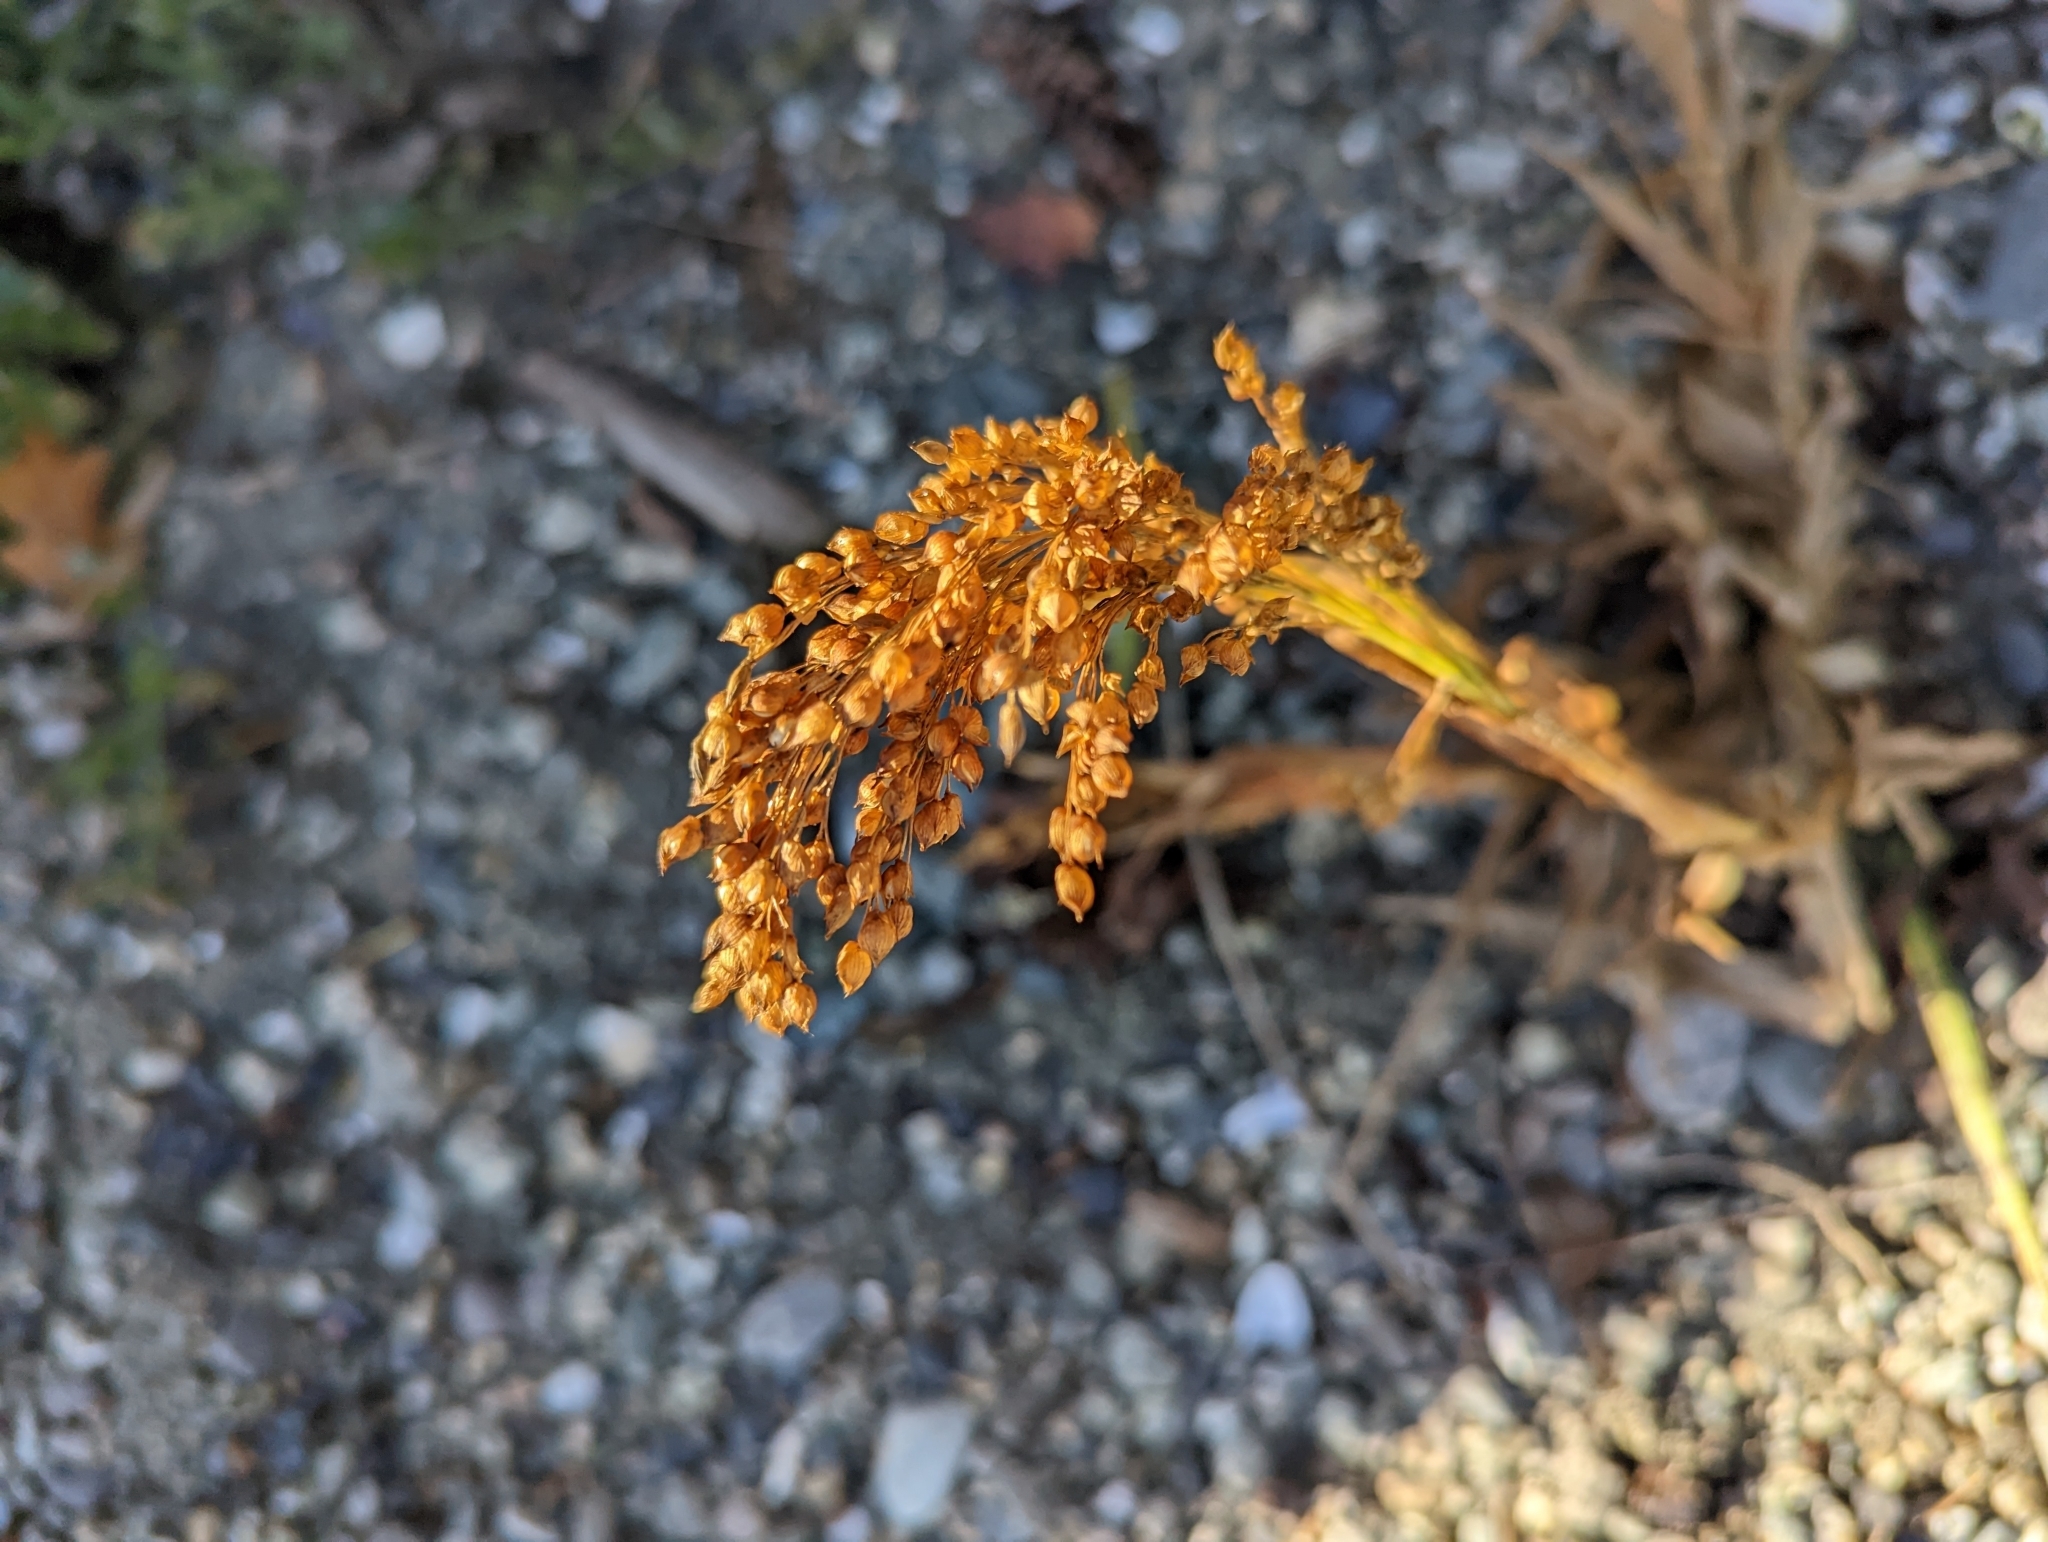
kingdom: Plantae
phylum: Tracheophyta
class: Liliopsida
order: Poales
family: Poaceae
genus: Panicum
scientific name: Panicum miliaceum
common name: Common millet
